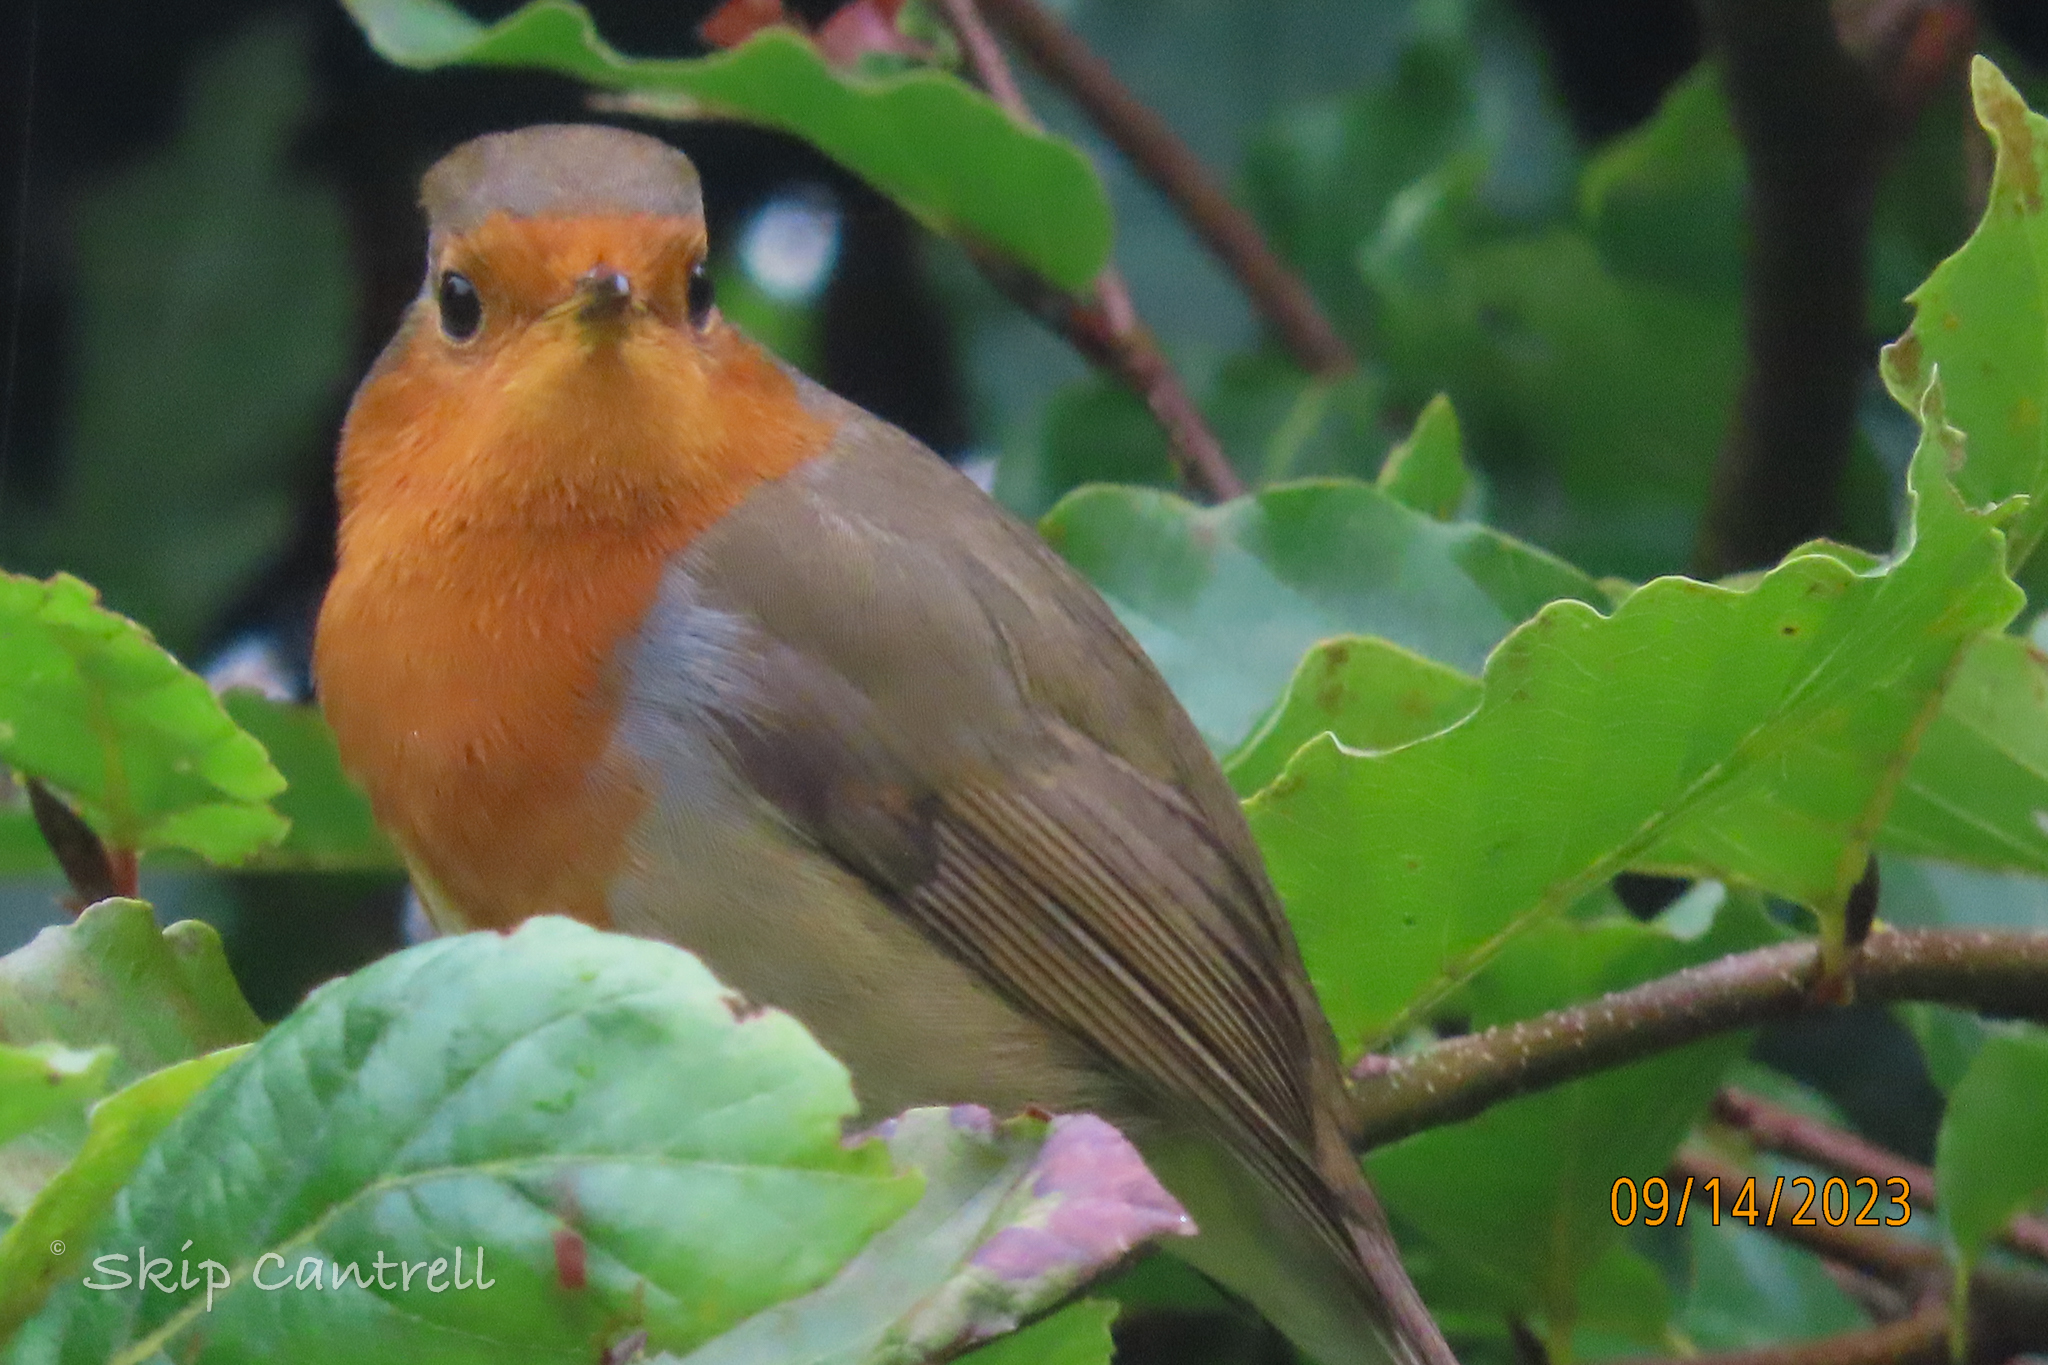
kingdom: Animalia
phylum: Chordata
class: Aves
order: Passeriformes
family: Muscicapidae
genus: Erithacus
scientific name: Erithacus rubecula
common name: European robin
